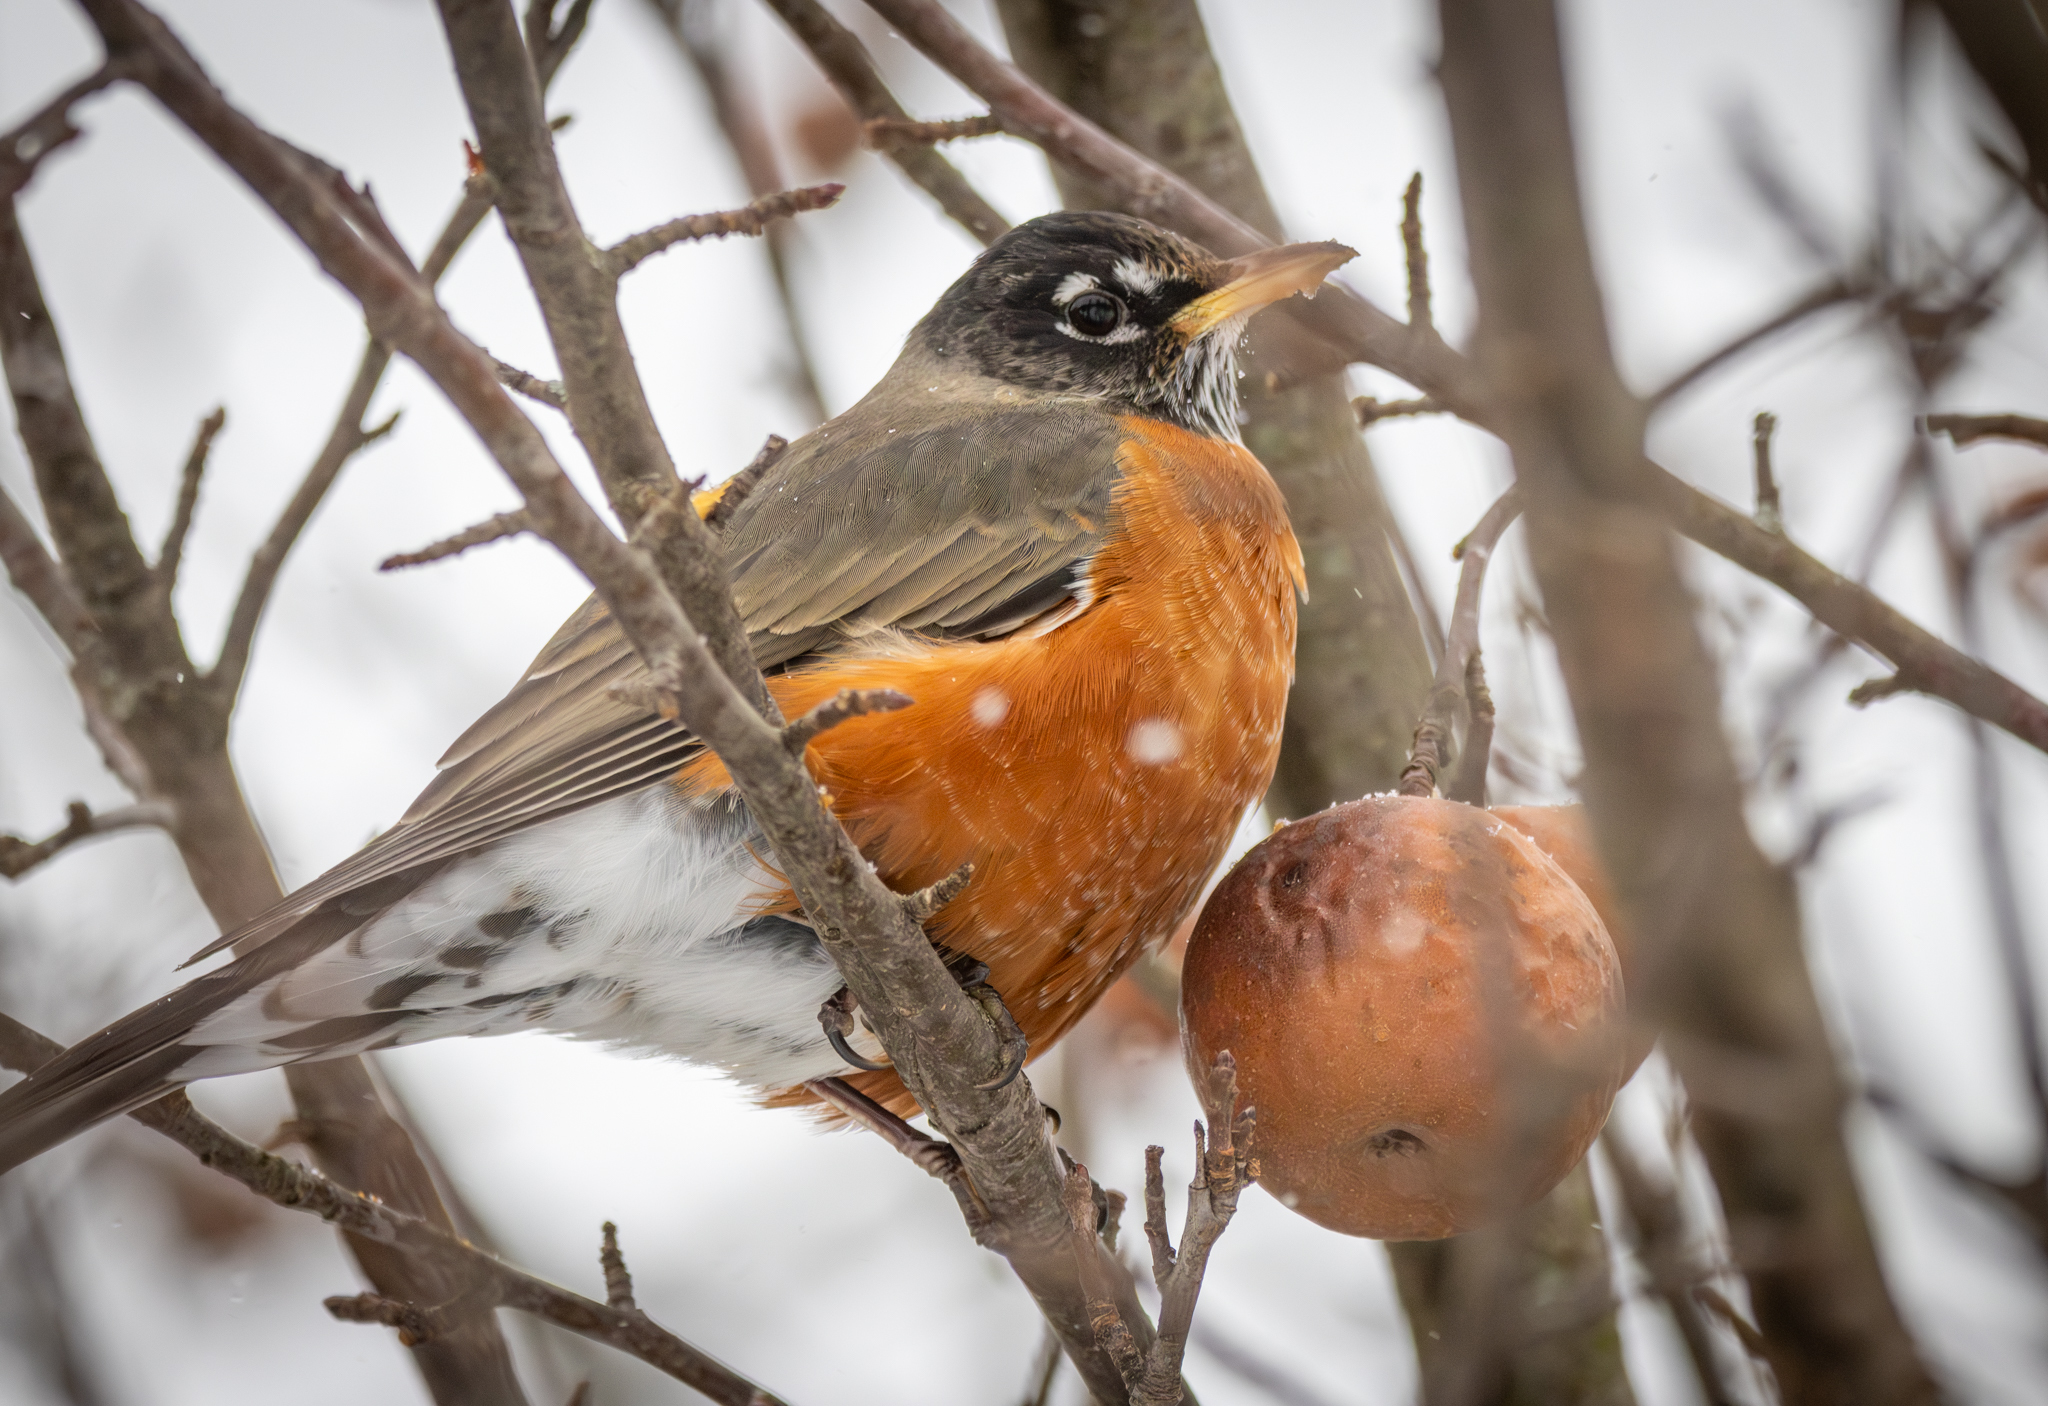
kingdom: Animalia
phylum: Chordata
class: Aves
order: Passeriformes
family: Turdidae
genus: Turdus
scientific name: Turdus migratorius
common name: American robin
